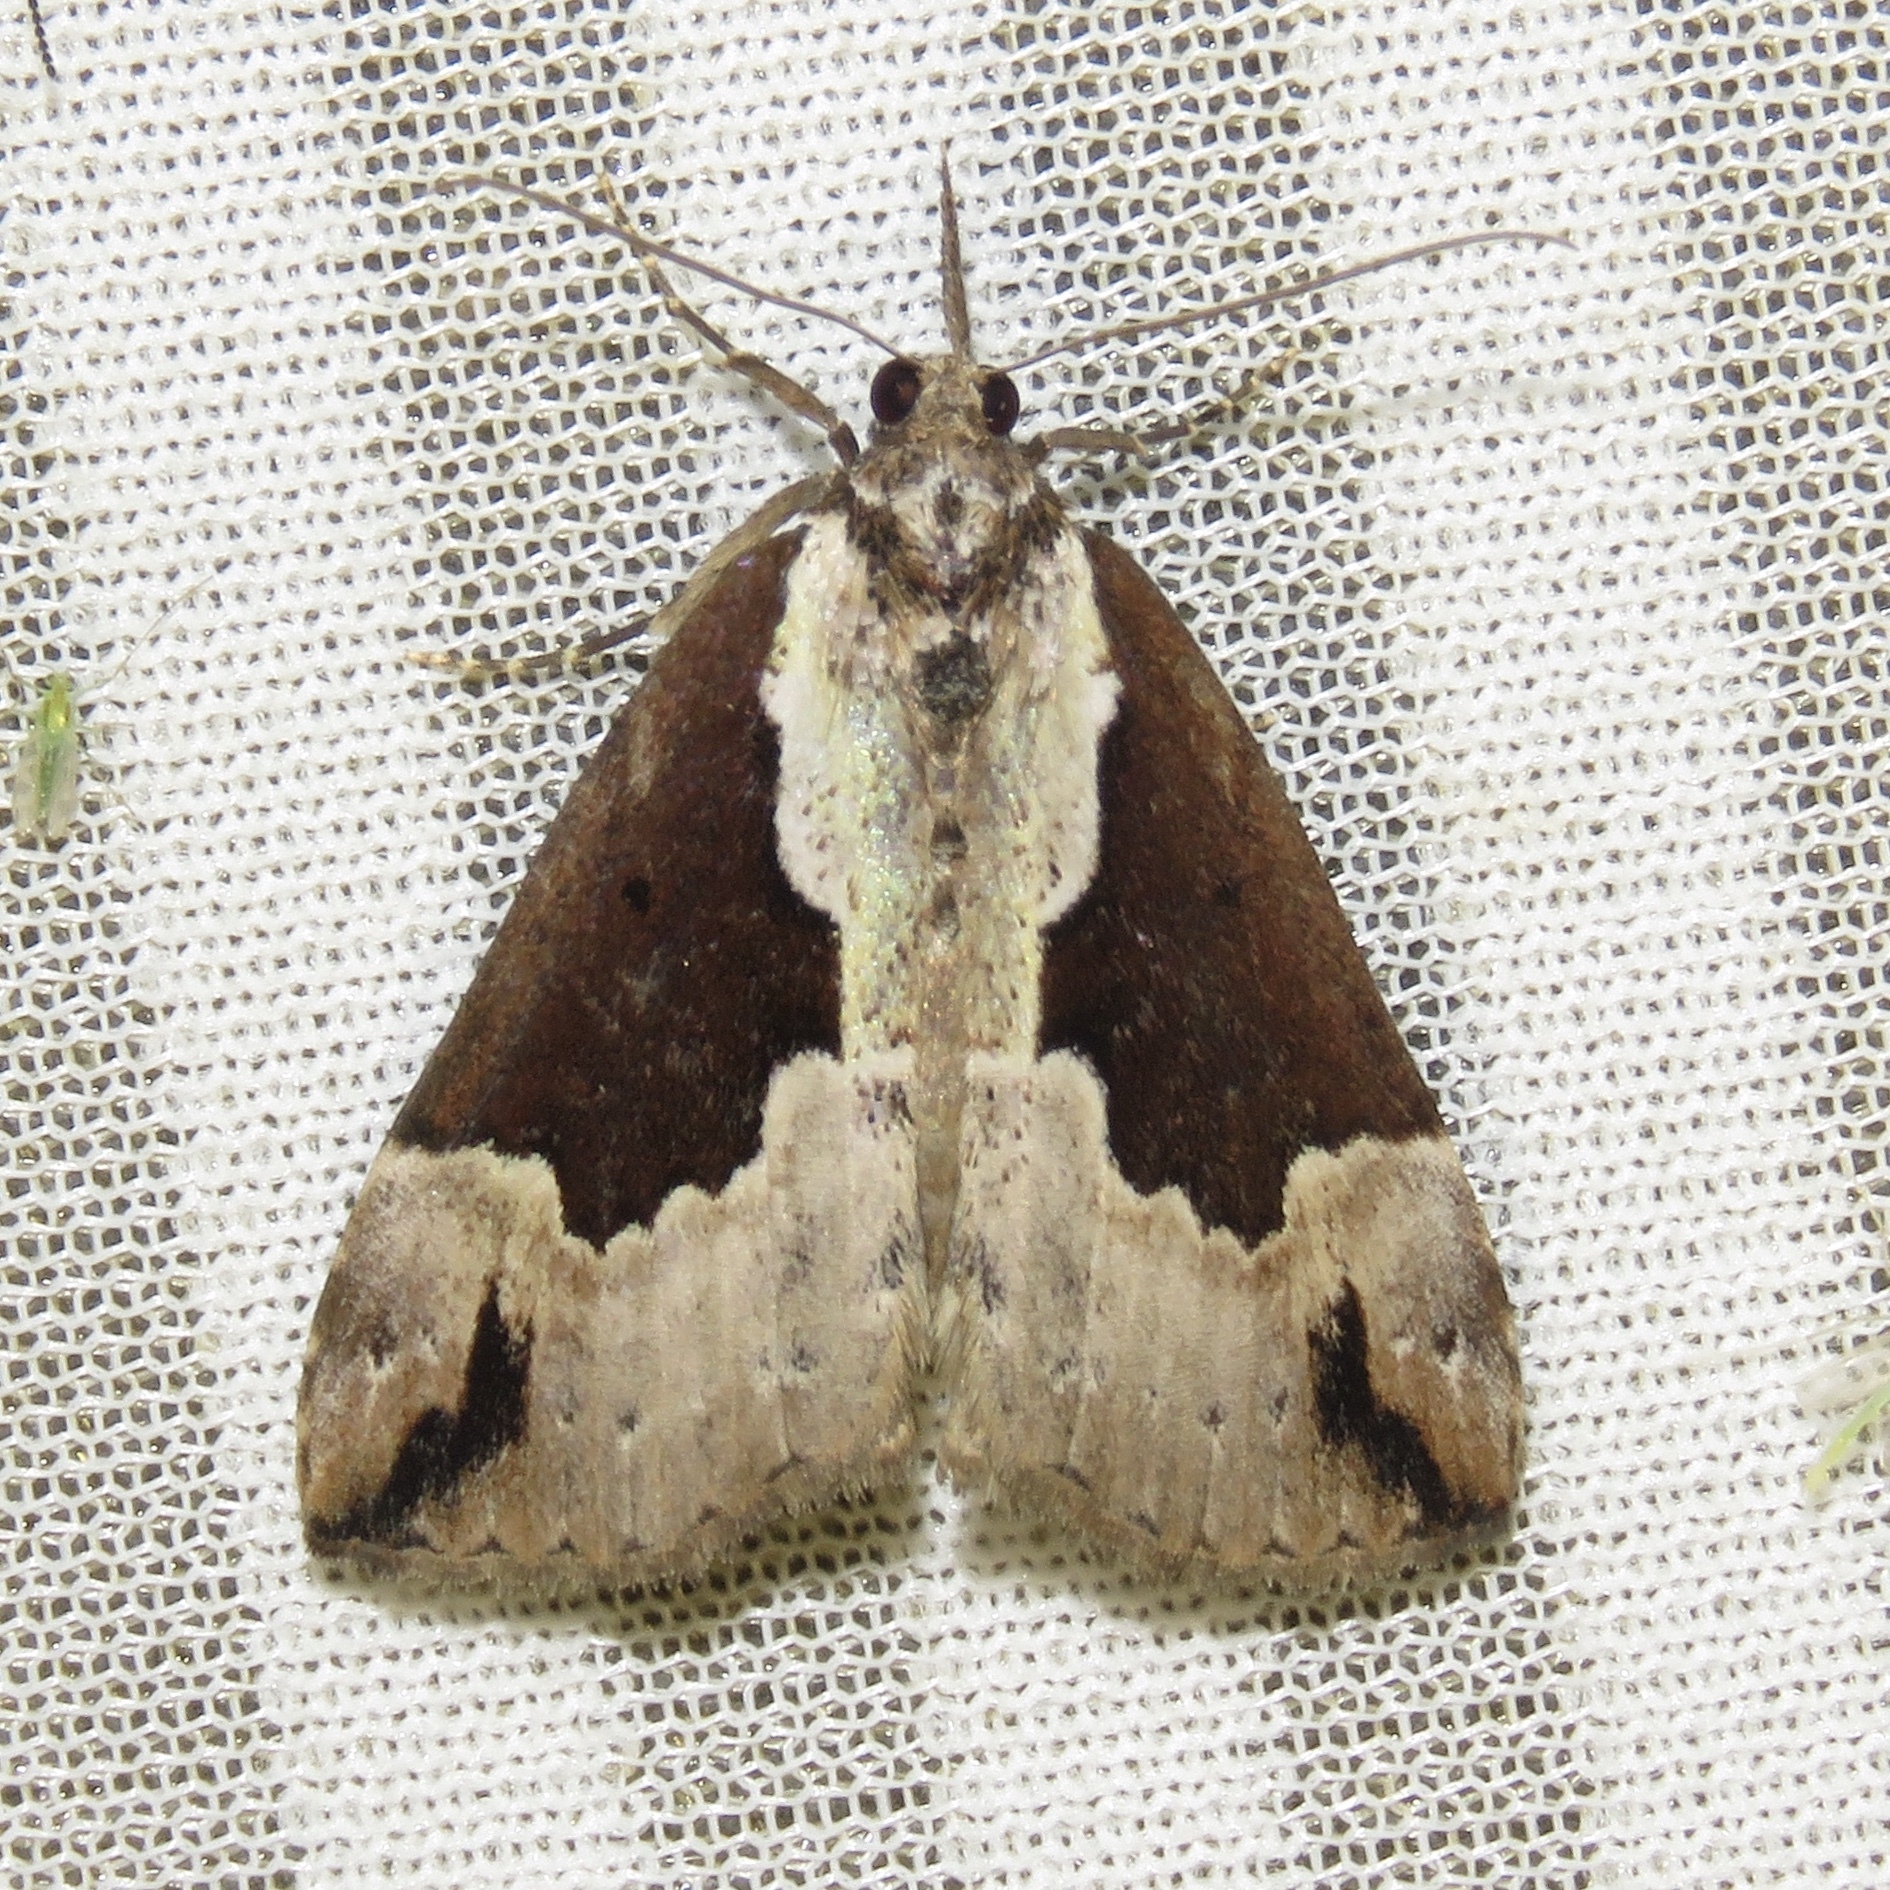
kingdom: Animalia
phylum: Arthropoda
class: Insecta
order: Lepidoptera
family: Erebidae
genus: Hypena
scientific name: Hypena baltimoralis
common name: Baltimore snout
